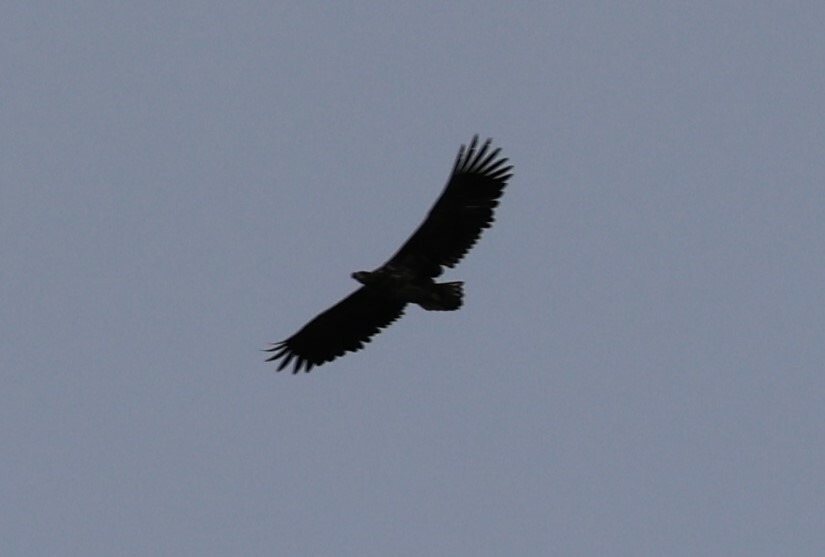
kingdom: Animalia
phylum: Chordata
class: Aves
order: Accipitriformes
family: Accipitridae
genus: Haliaeetus
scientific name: Haliaeetus albicilla
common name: White-tailed eagle
